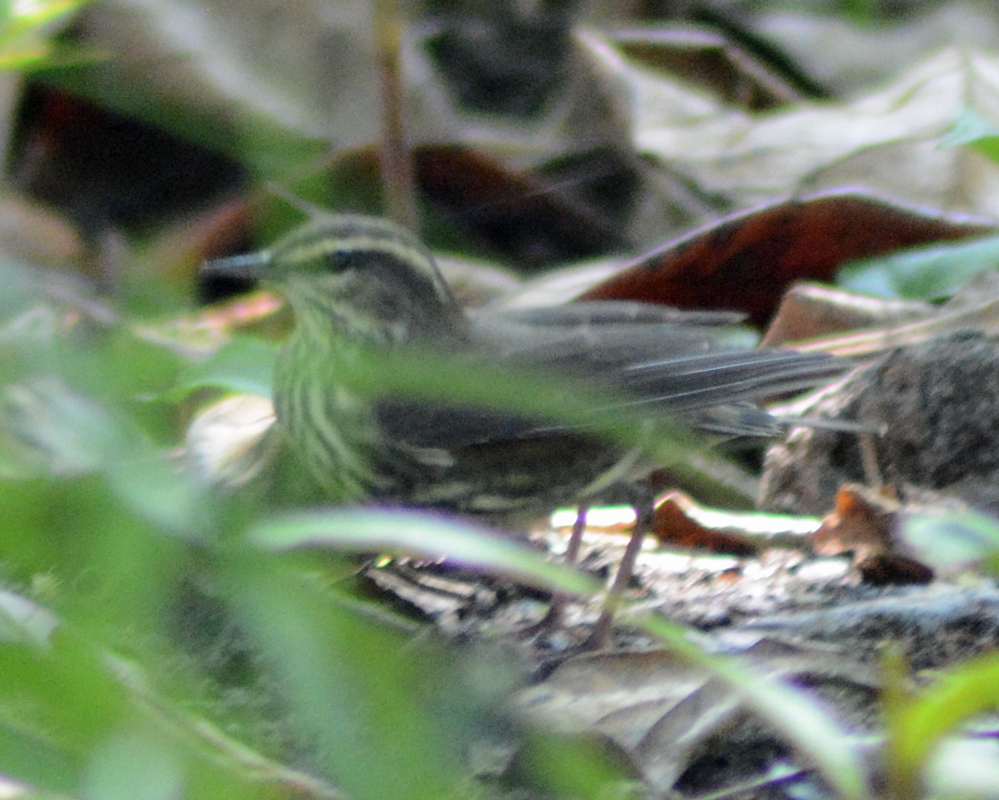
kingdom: Animalia
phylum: Chordata
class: Aves
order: Passeriformes
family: Parulidae
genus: Parkesia
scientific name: Parkesia noveboracensis
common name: Northern waterthrush
